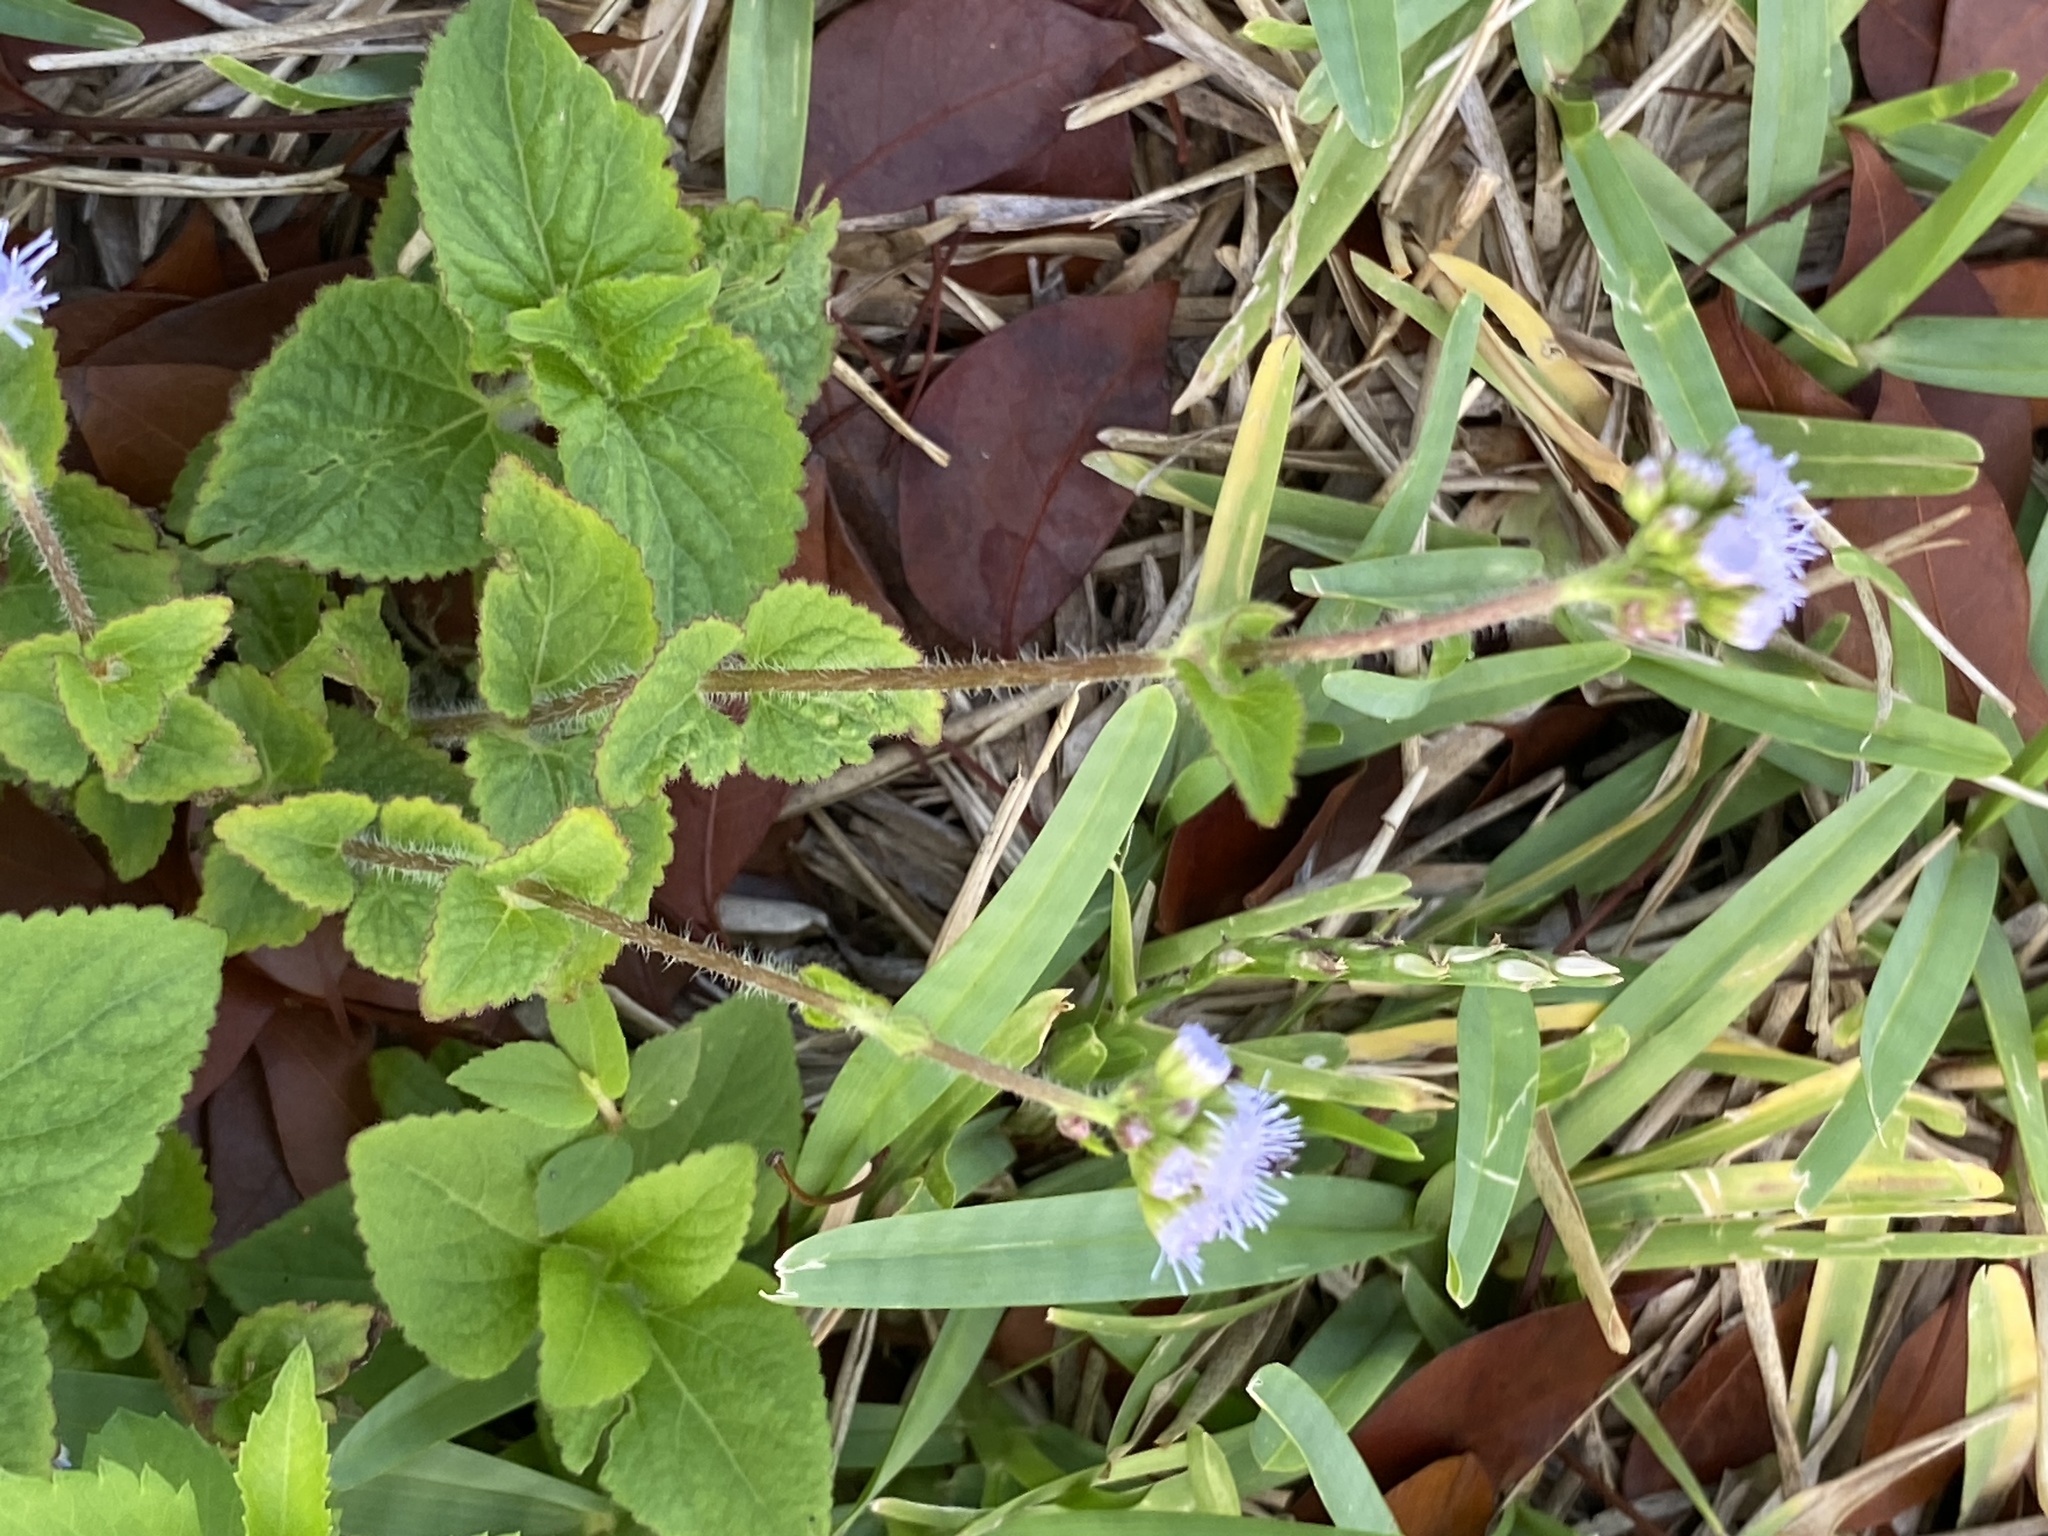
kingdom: Plantae
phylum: Tracheophyta
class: Magnoliopsida
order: Asterales
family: Asteraceae
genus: Ageratum
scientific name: Ageratum houstonianum
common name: Bluemink
